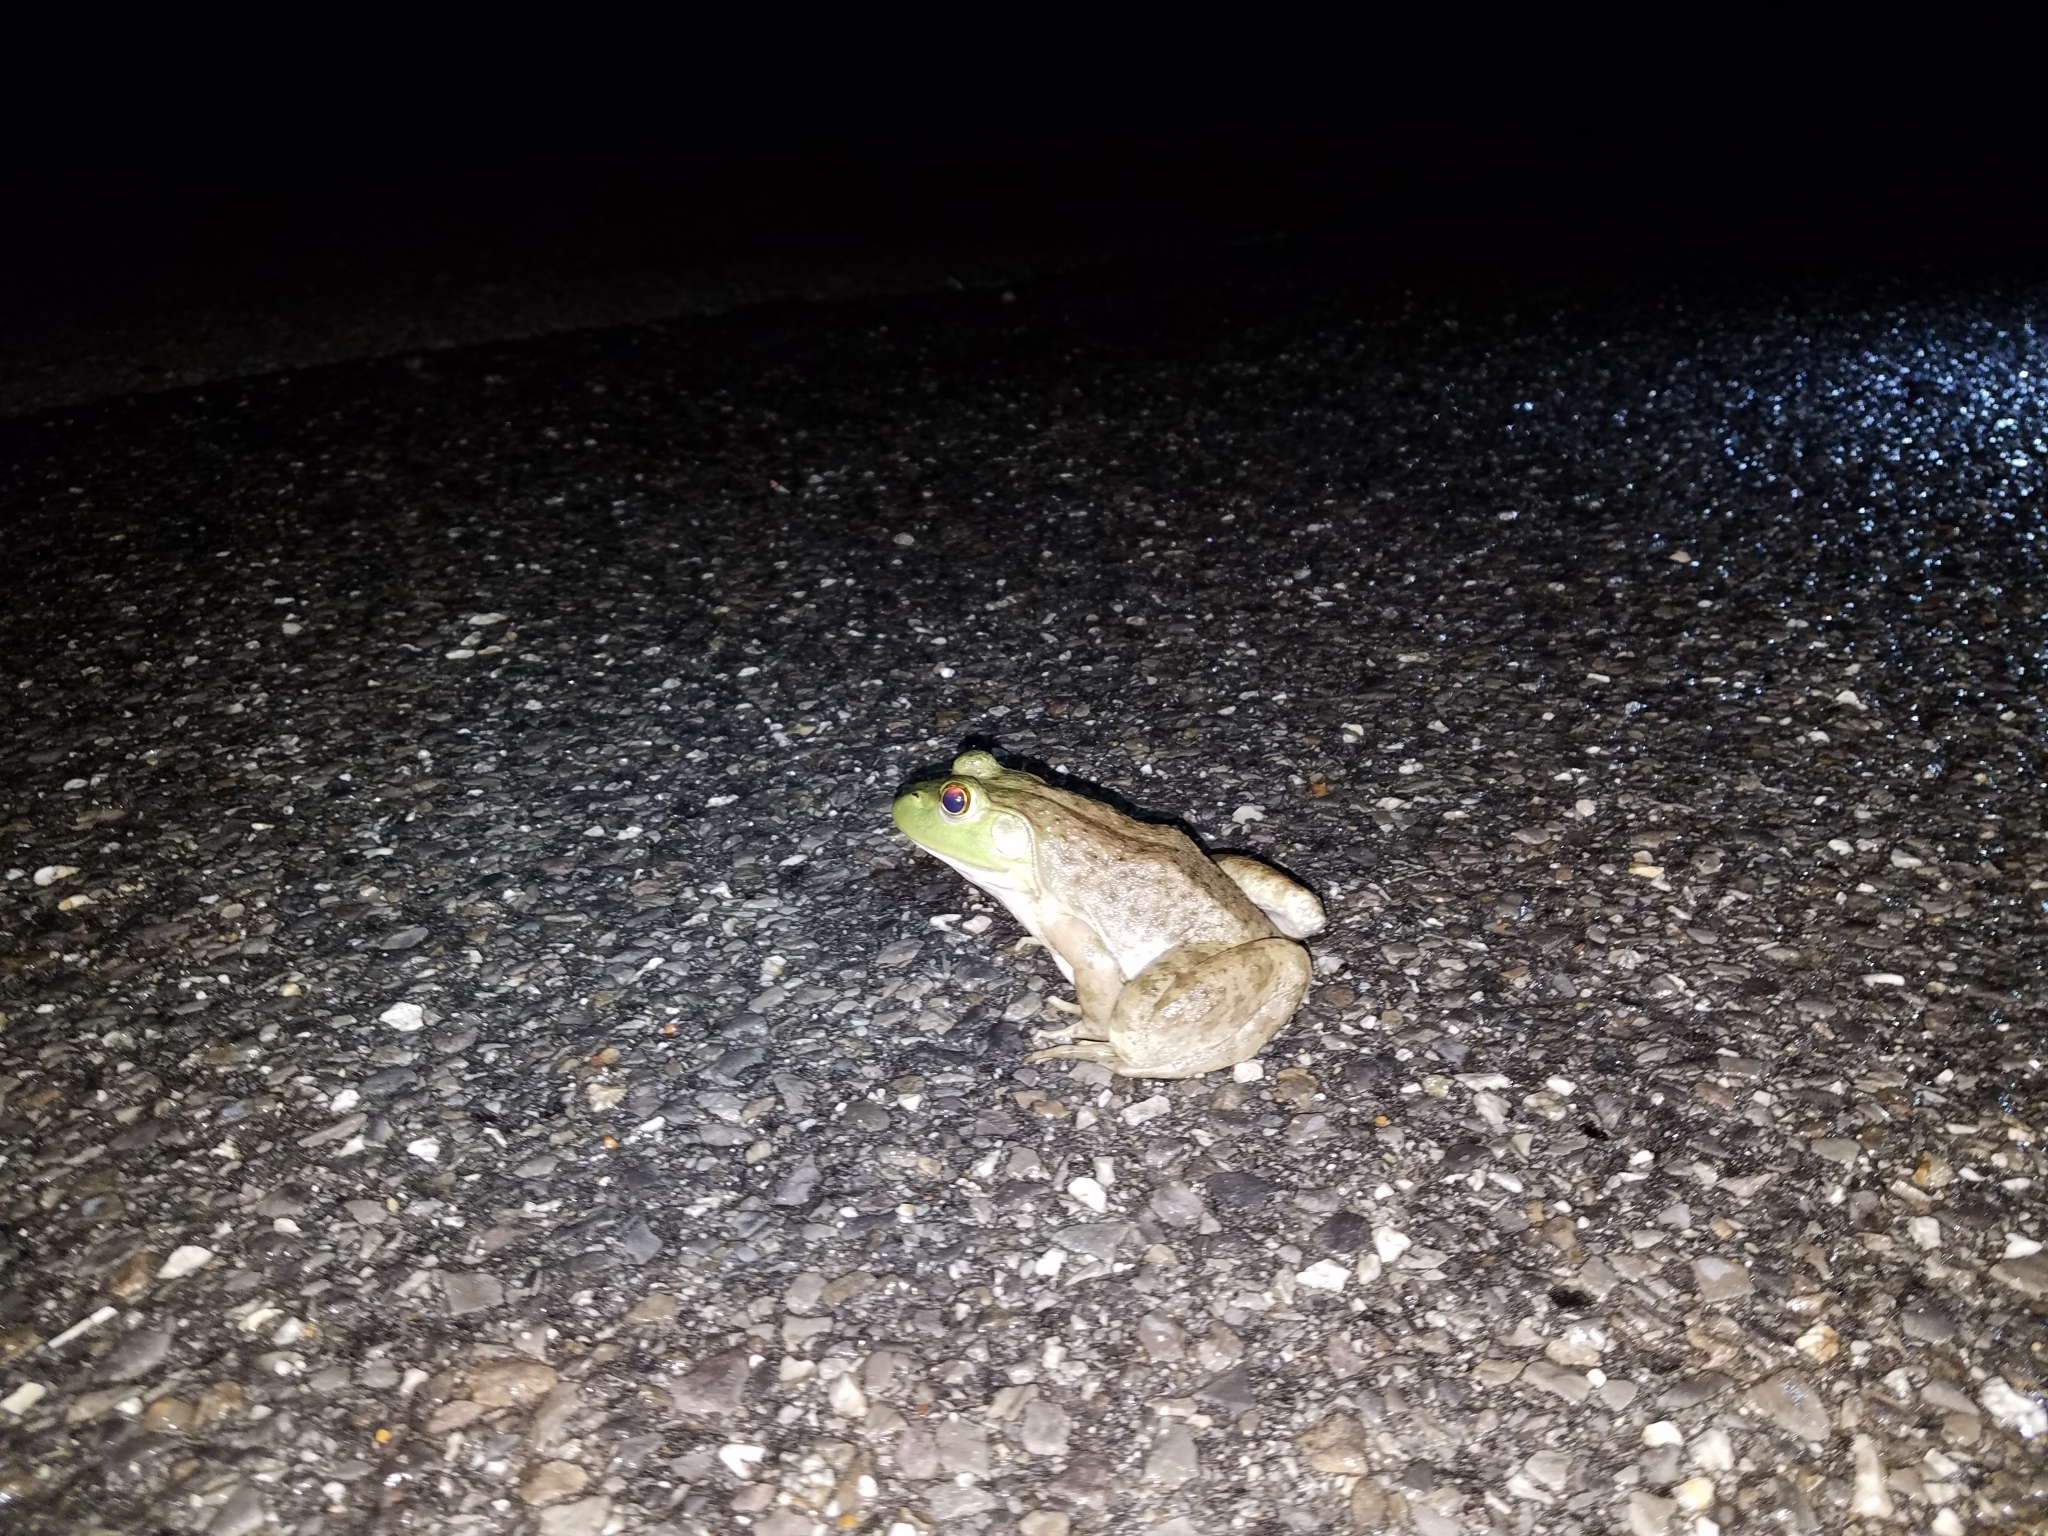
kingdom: Animalia
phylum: Chordata
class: Amphibia
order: Anura
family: Ranidae
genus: Lithobates
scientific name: Lithobates catesbeianus
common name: American bullfrog
